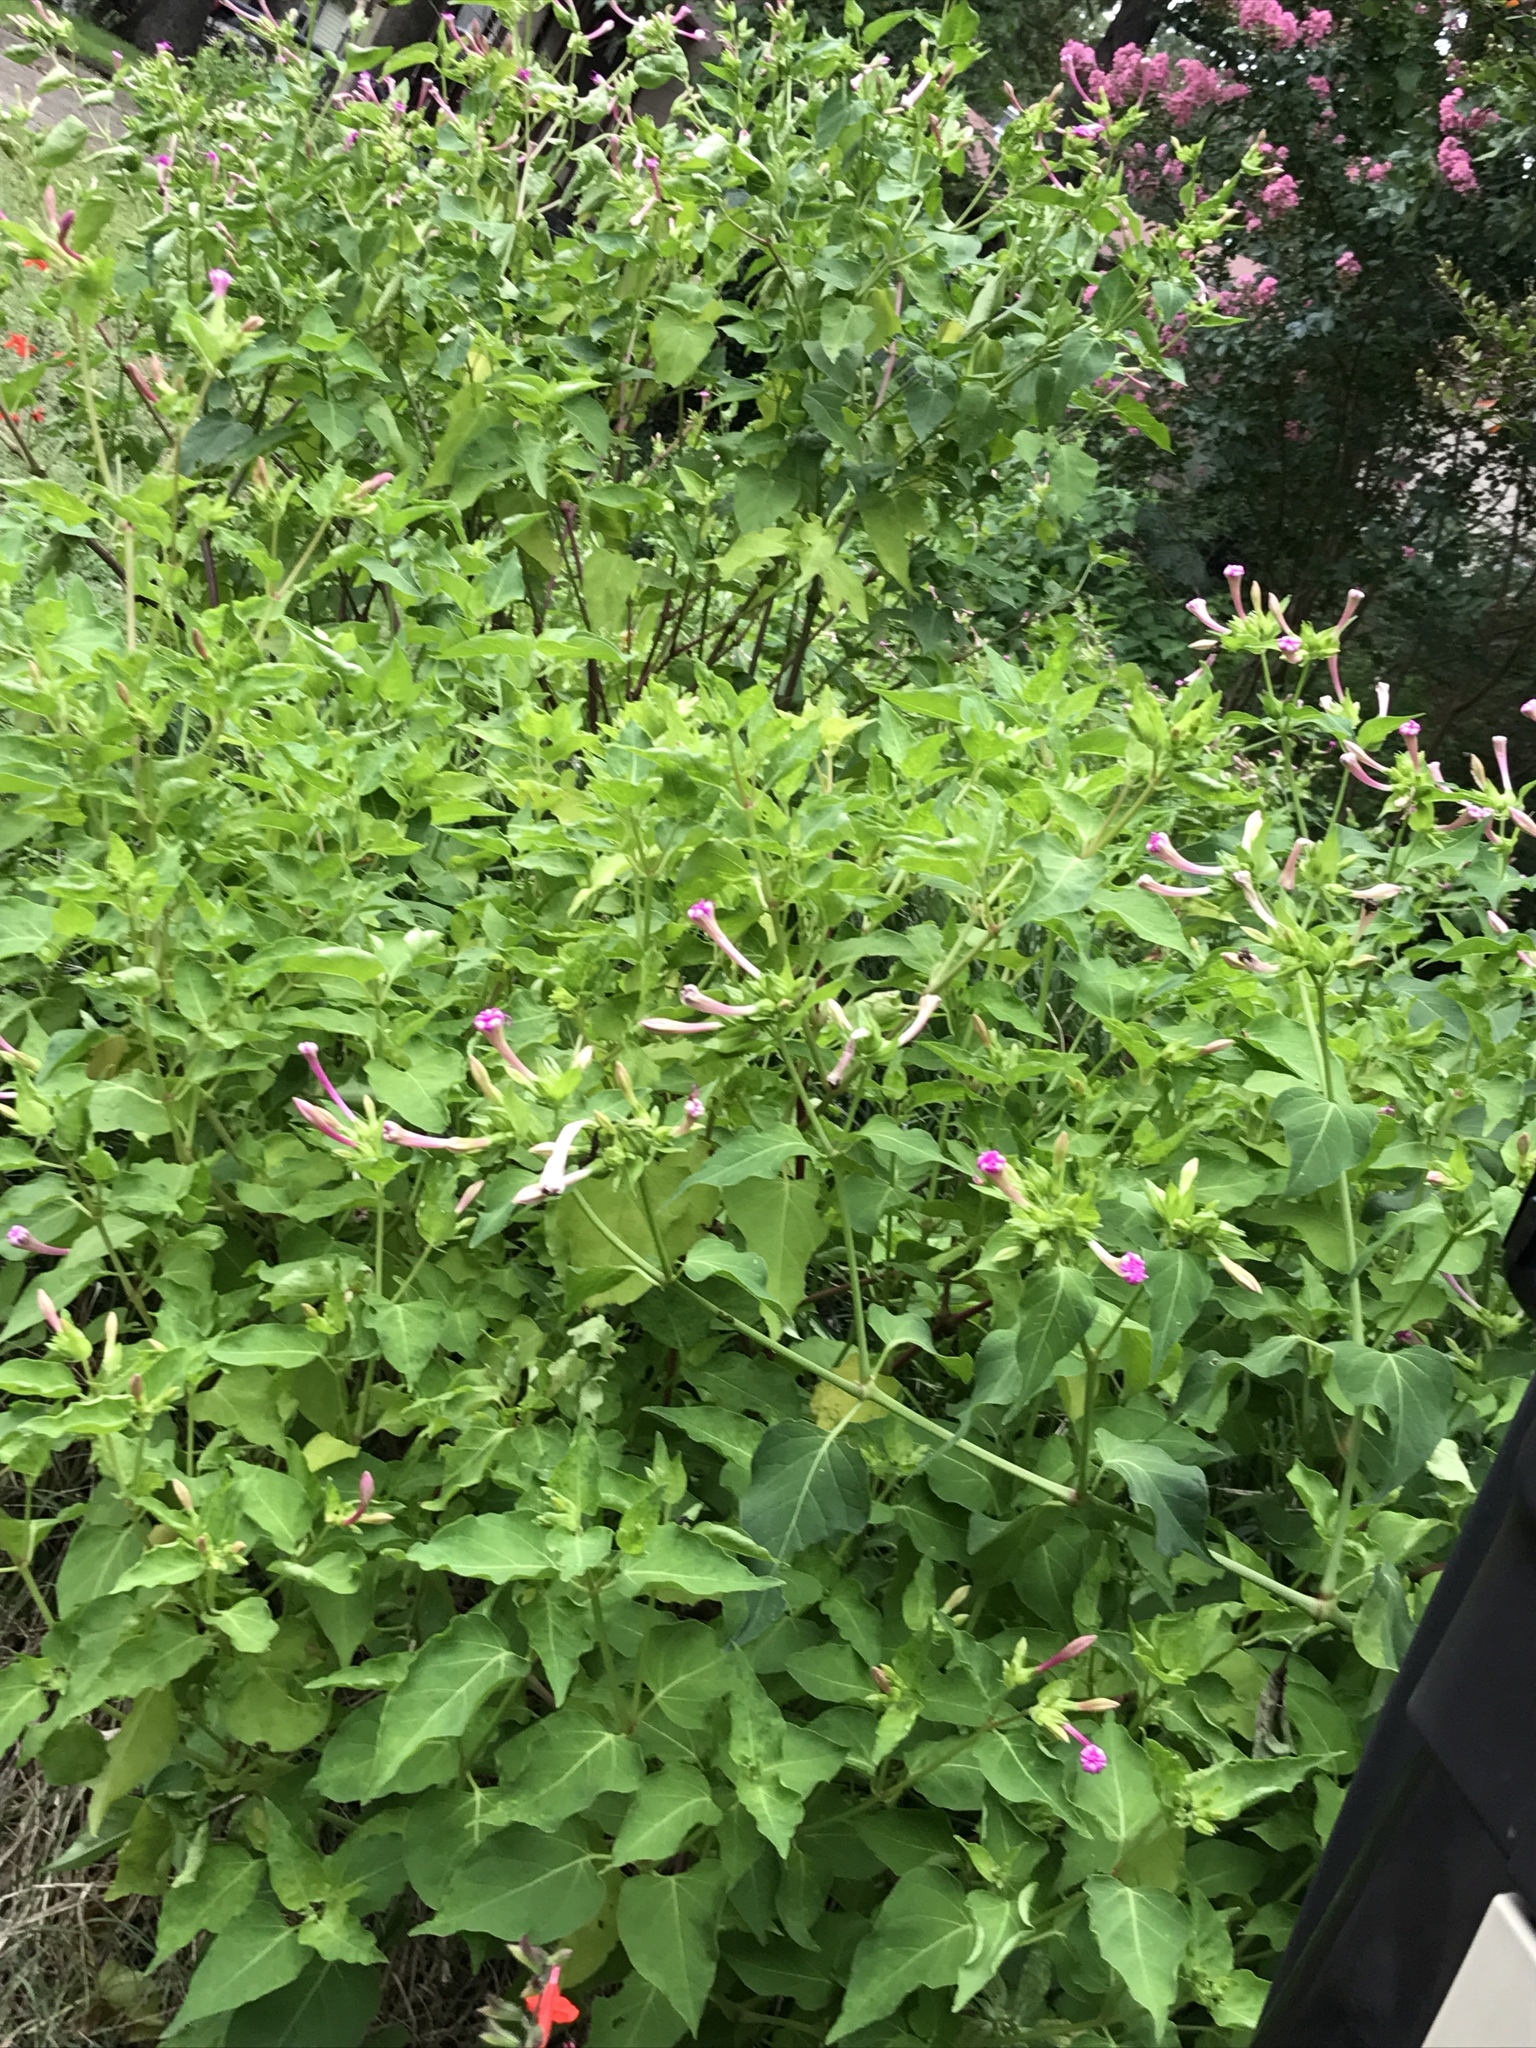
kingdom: Plantae
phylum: Tracheophyta
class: Magnoliopsida
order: Caryophyllales
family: Nyctaginaceae
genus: Mirabilis
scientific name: Mirabilis jalapa
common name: Marvel-of-peru
